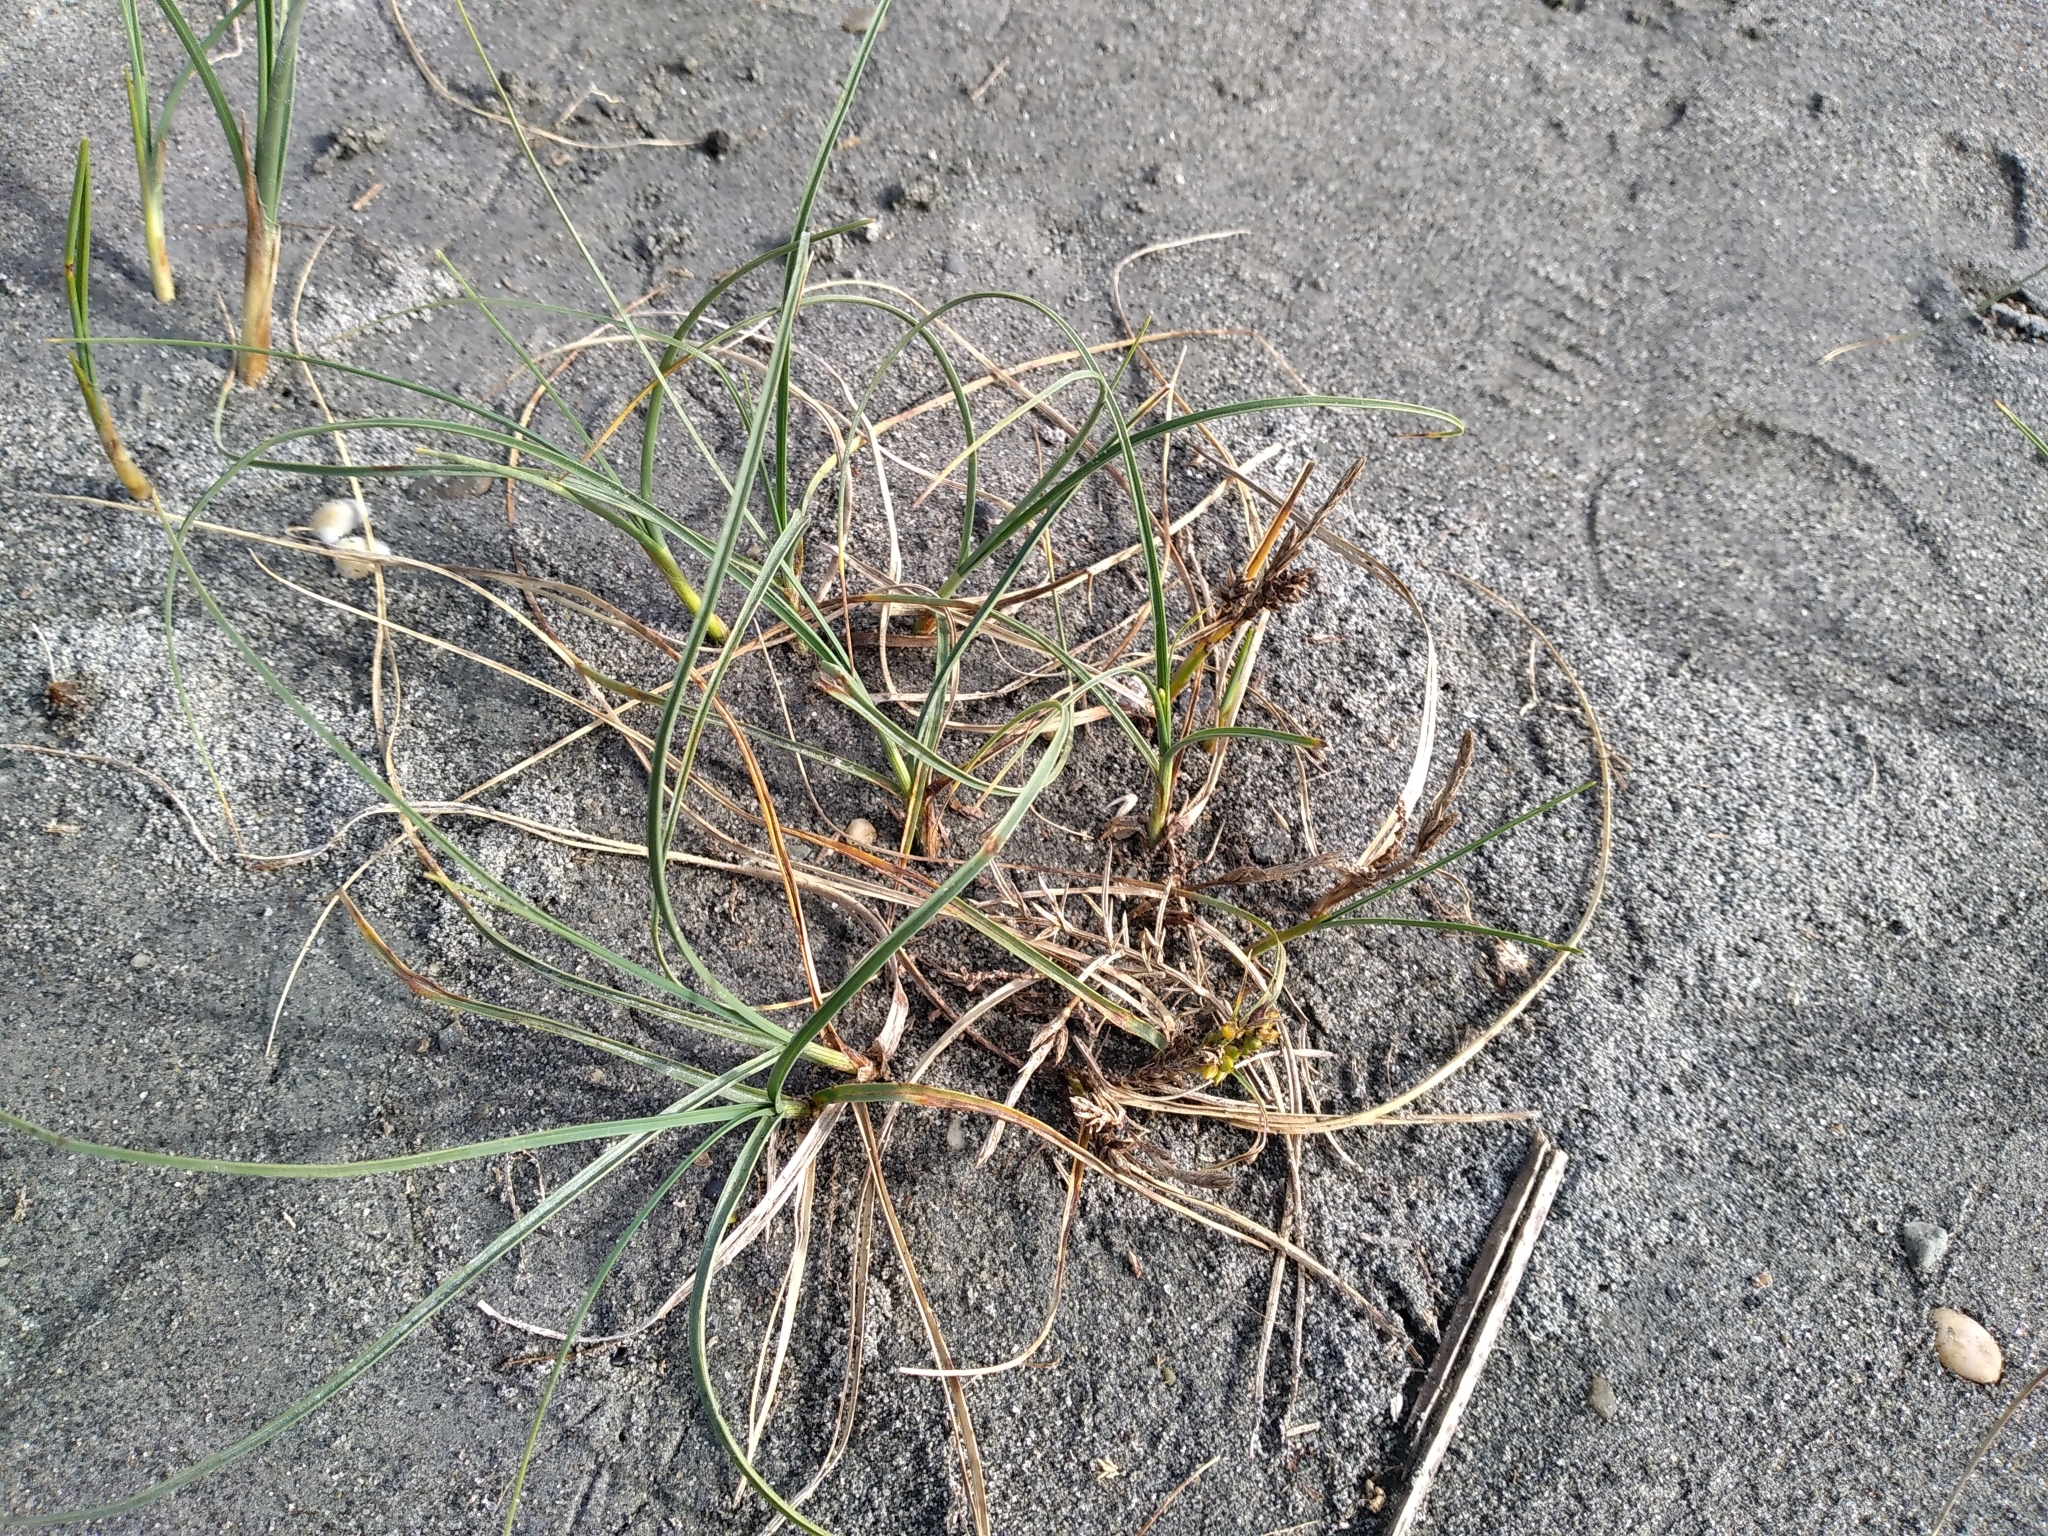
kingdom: Plantae
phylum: Tracheophyta
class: Liliopsida
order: Poales
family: Cyperaceae
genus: Carex
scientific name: Carex pumila
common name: Dwarf sedge
